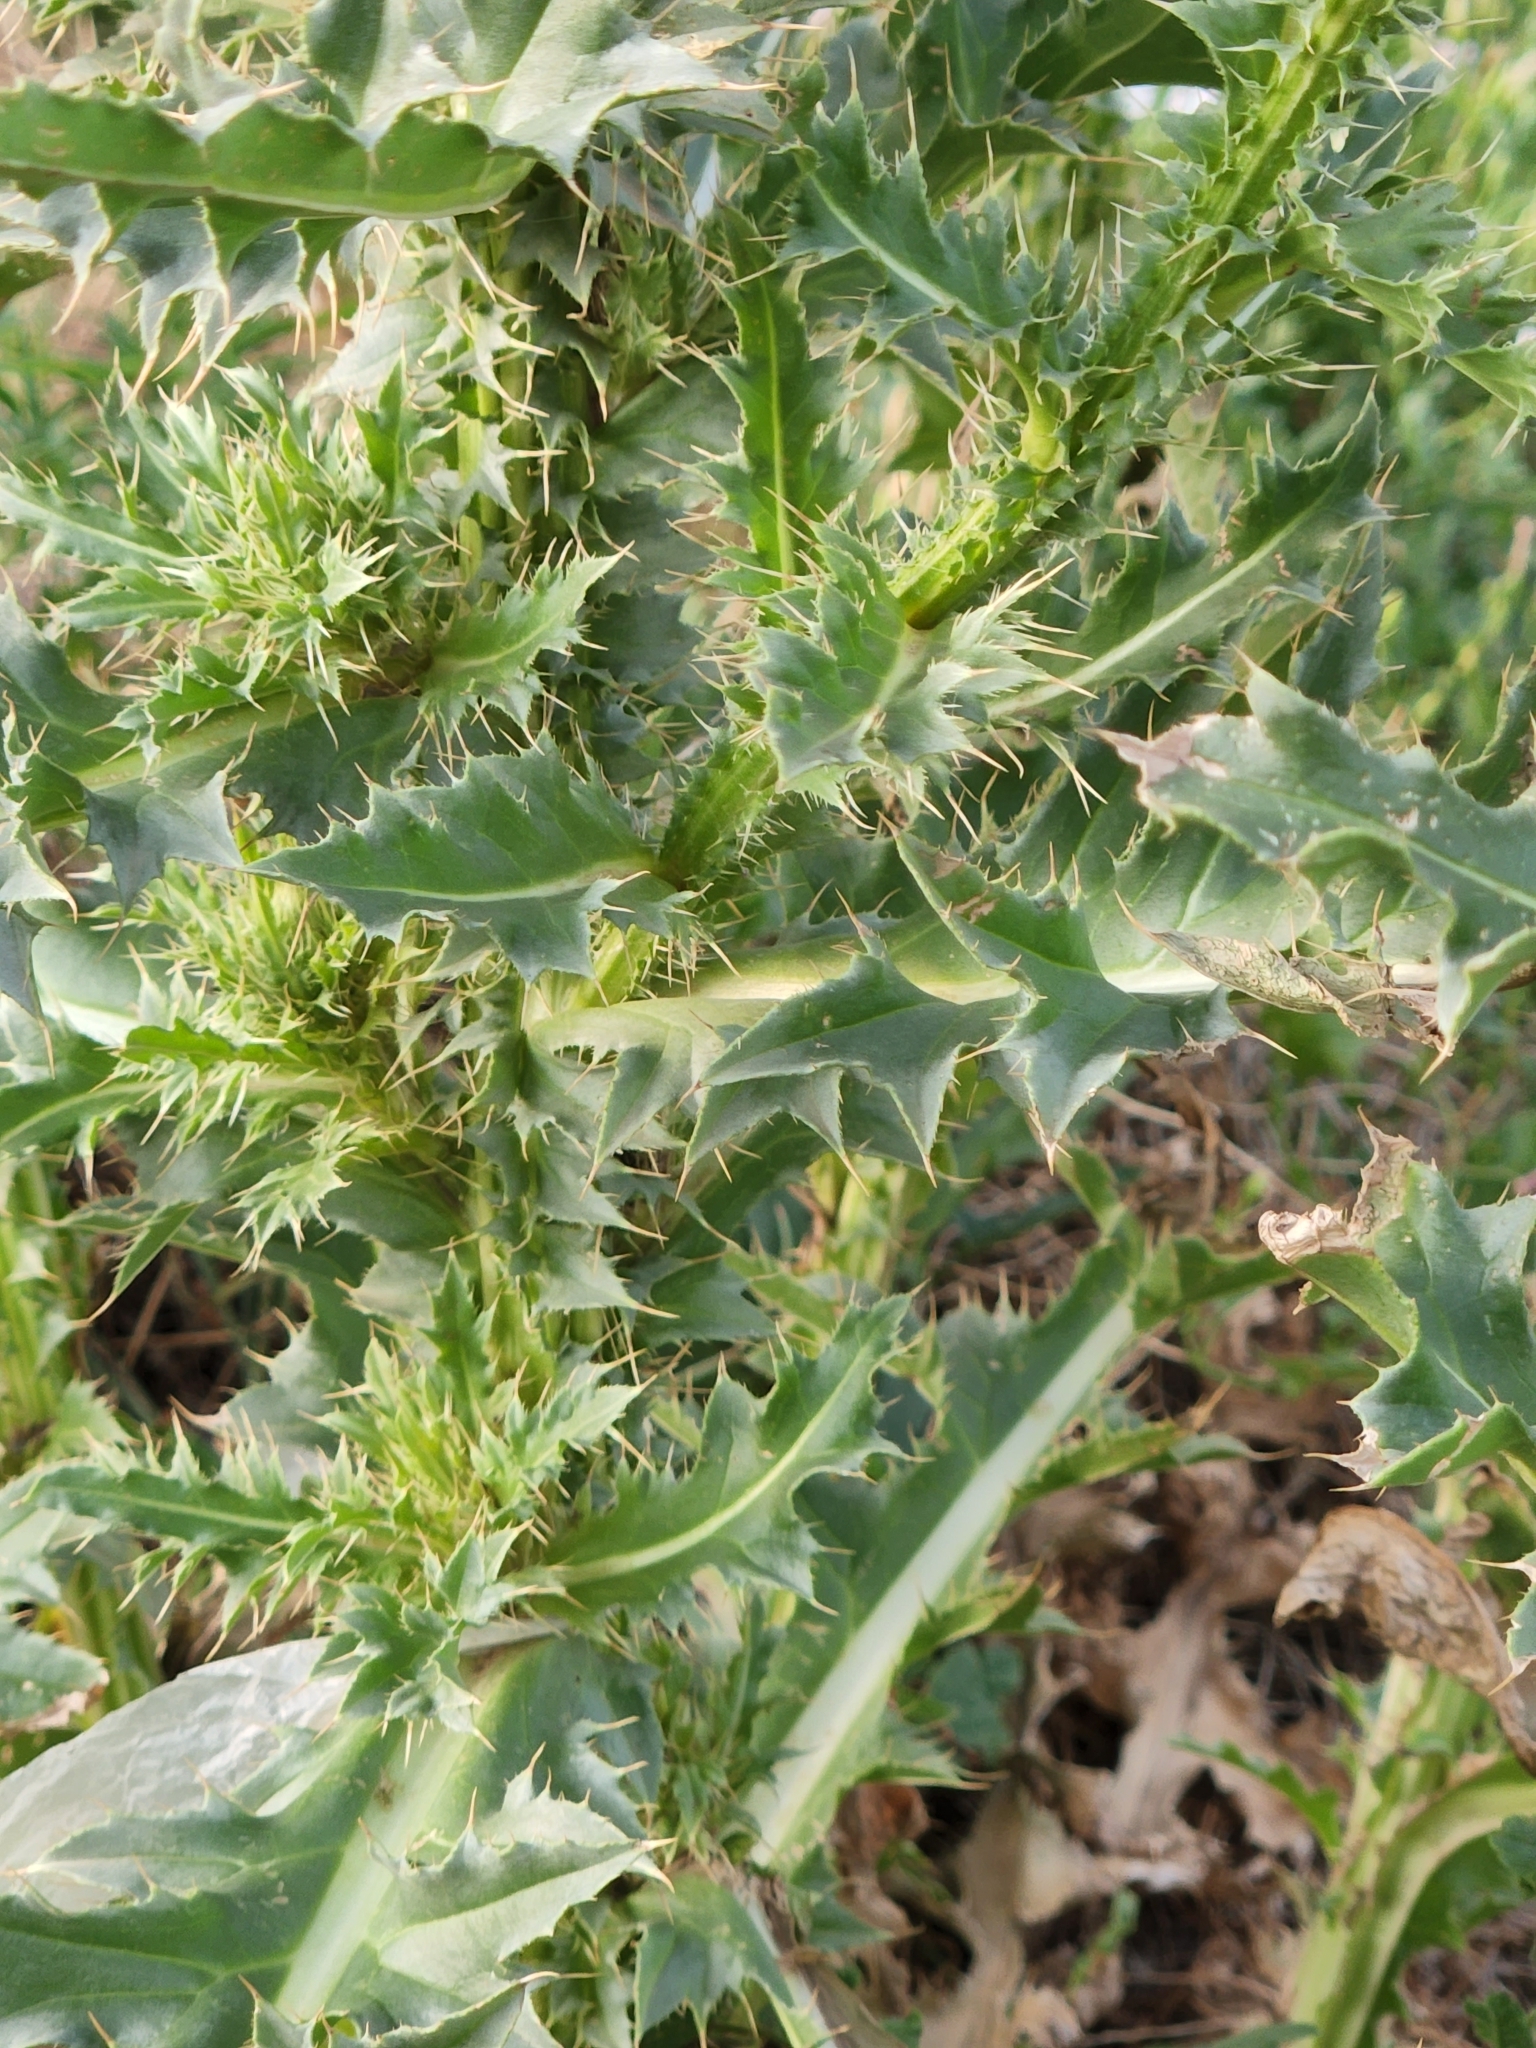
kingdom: Plantae
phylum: Tracheophyta
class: Magnoliopsida
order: Asterales
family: Asteraceae
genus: Carduus
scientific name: Carduus nutans
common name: Musk thistle
